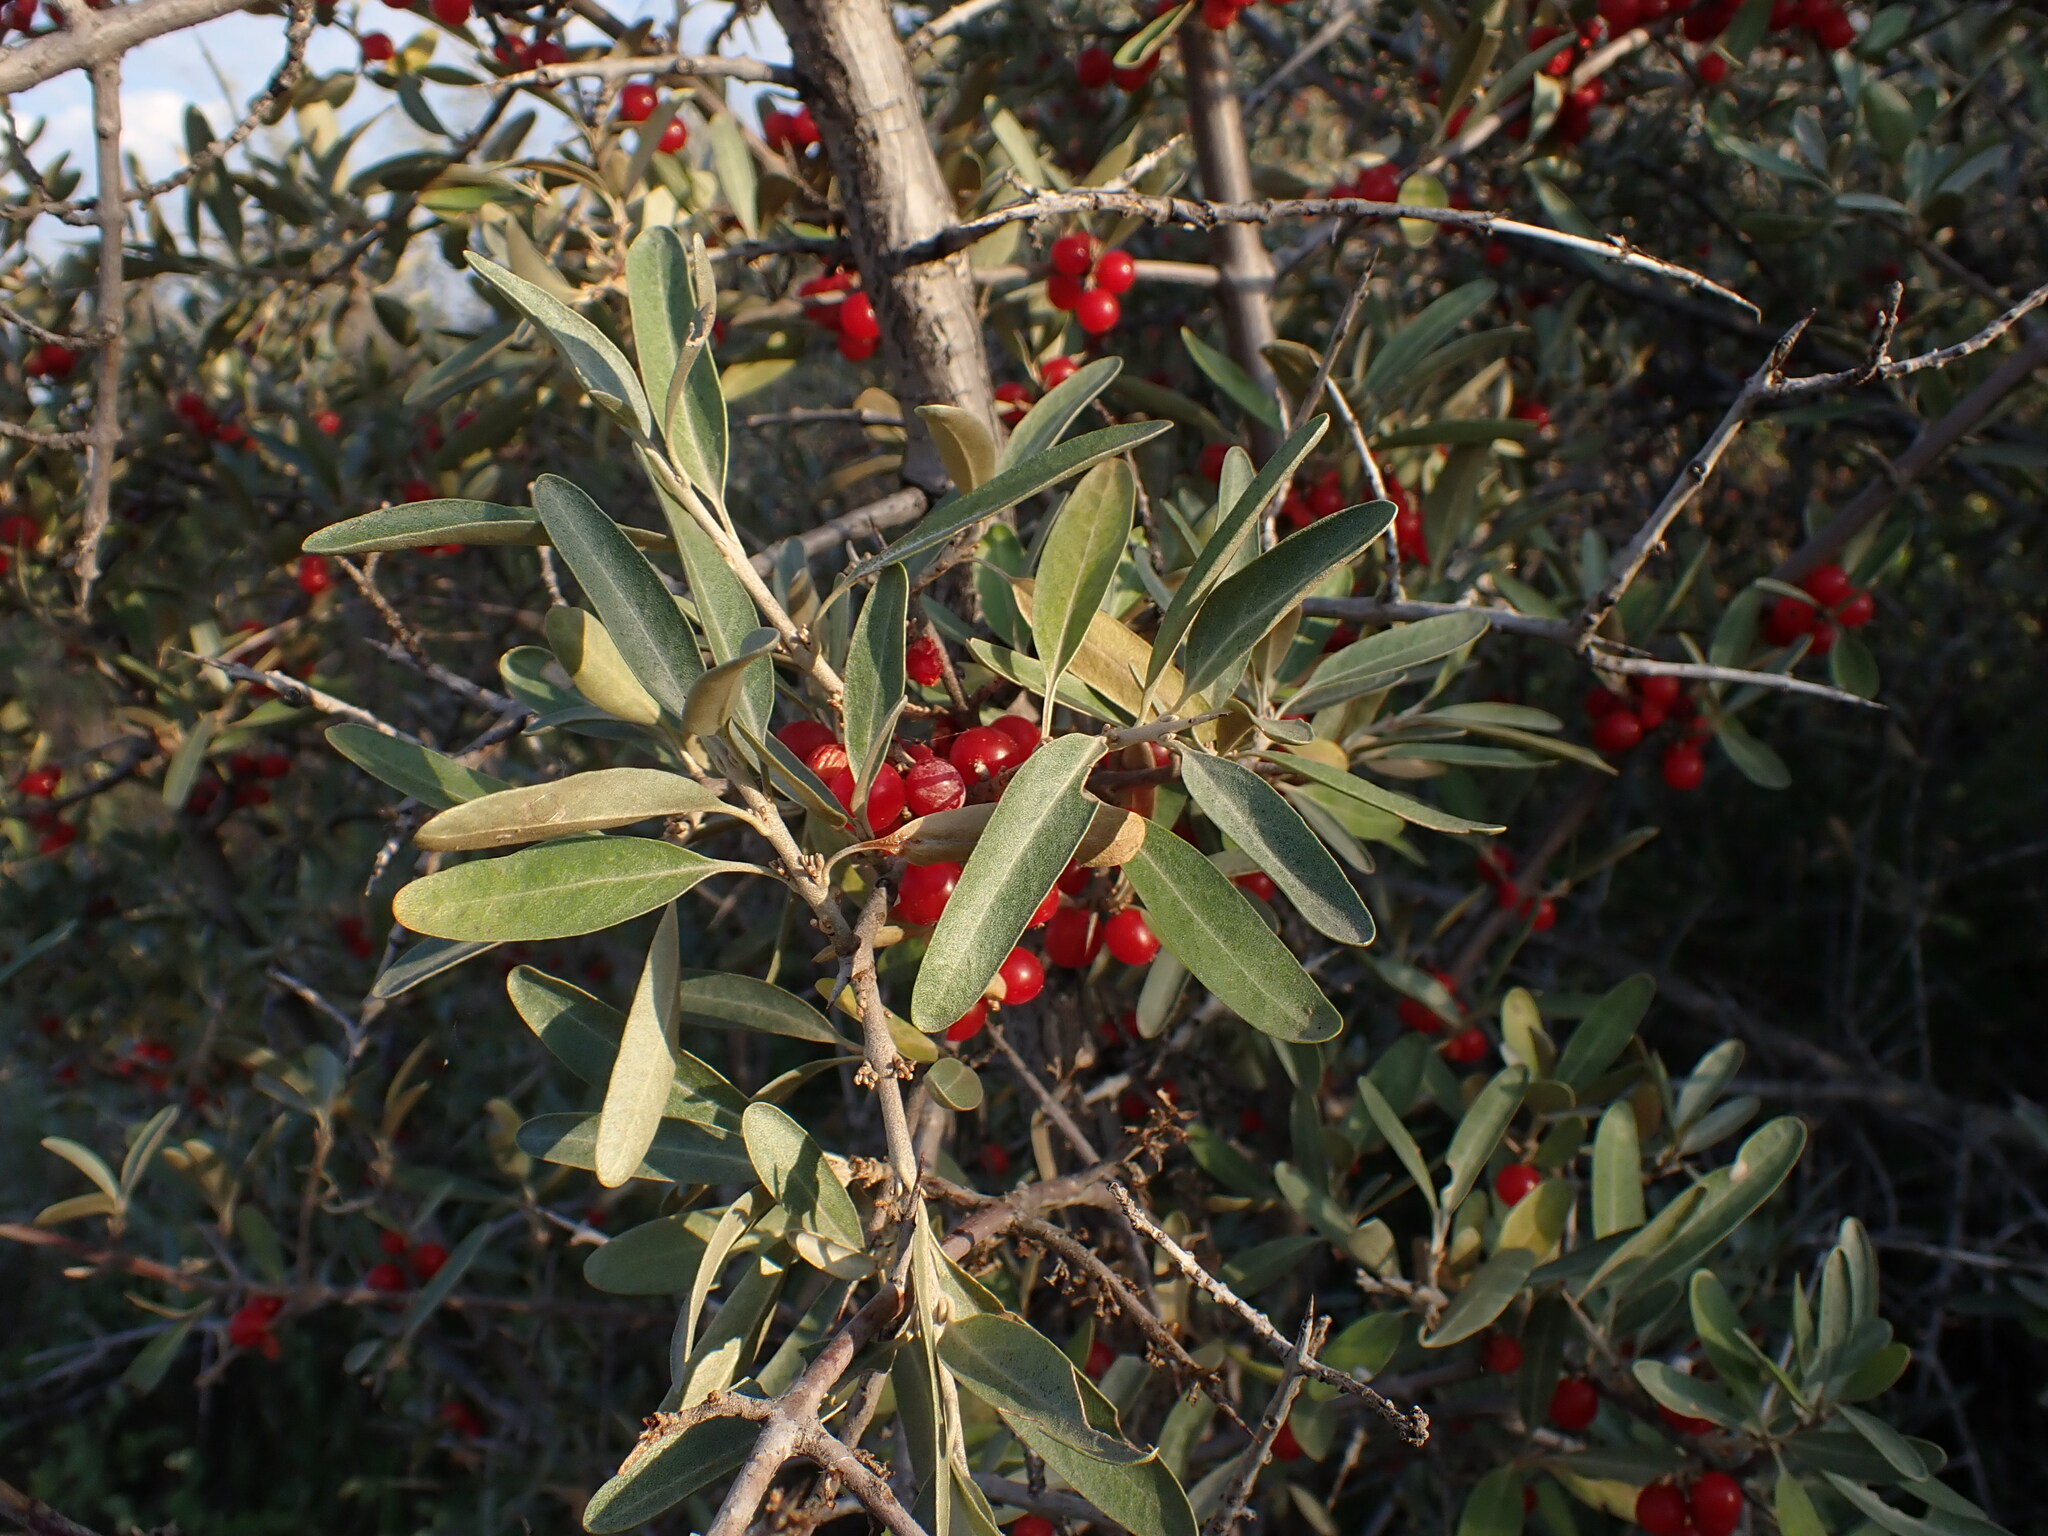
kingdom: Plantae
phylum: Tracheophyta
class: Magnoliopsida
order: Rosales
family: Elaeagnaceae
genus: Shepherdia
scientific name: Shepherdia argentea
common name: Silver buffaloberry
